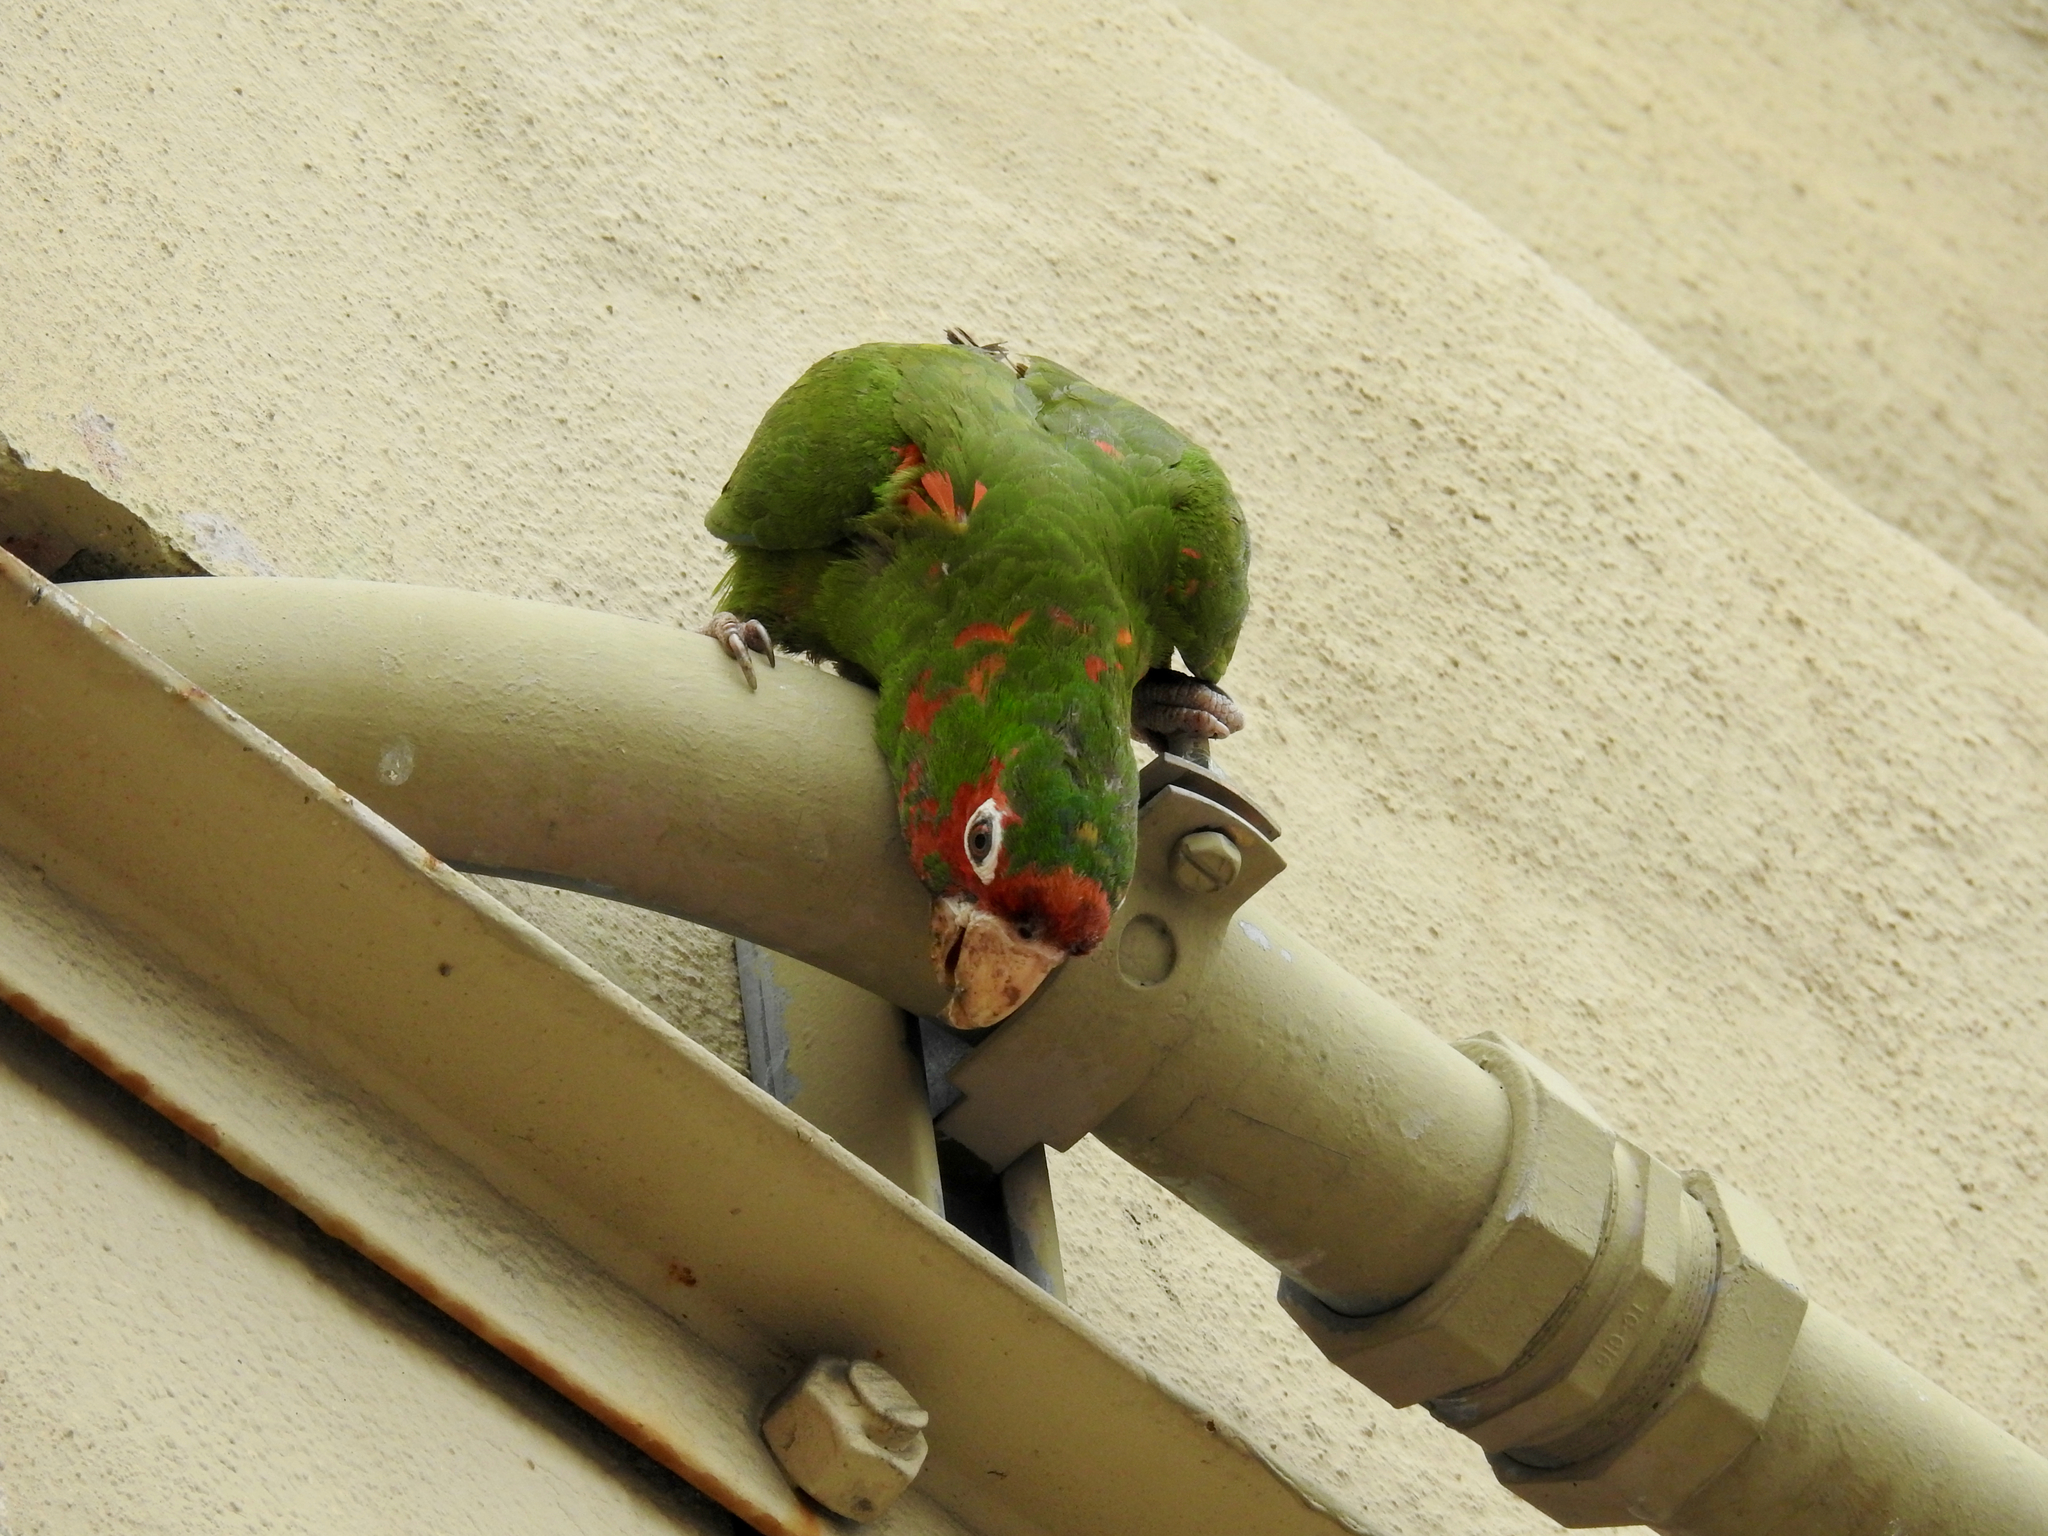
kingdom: Animalia
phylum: Chordata
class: Aves
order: Psittaciformes
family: Psittacidae
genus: Aratinga
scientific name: Aratinga mitrata
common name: Mitred parakeet
